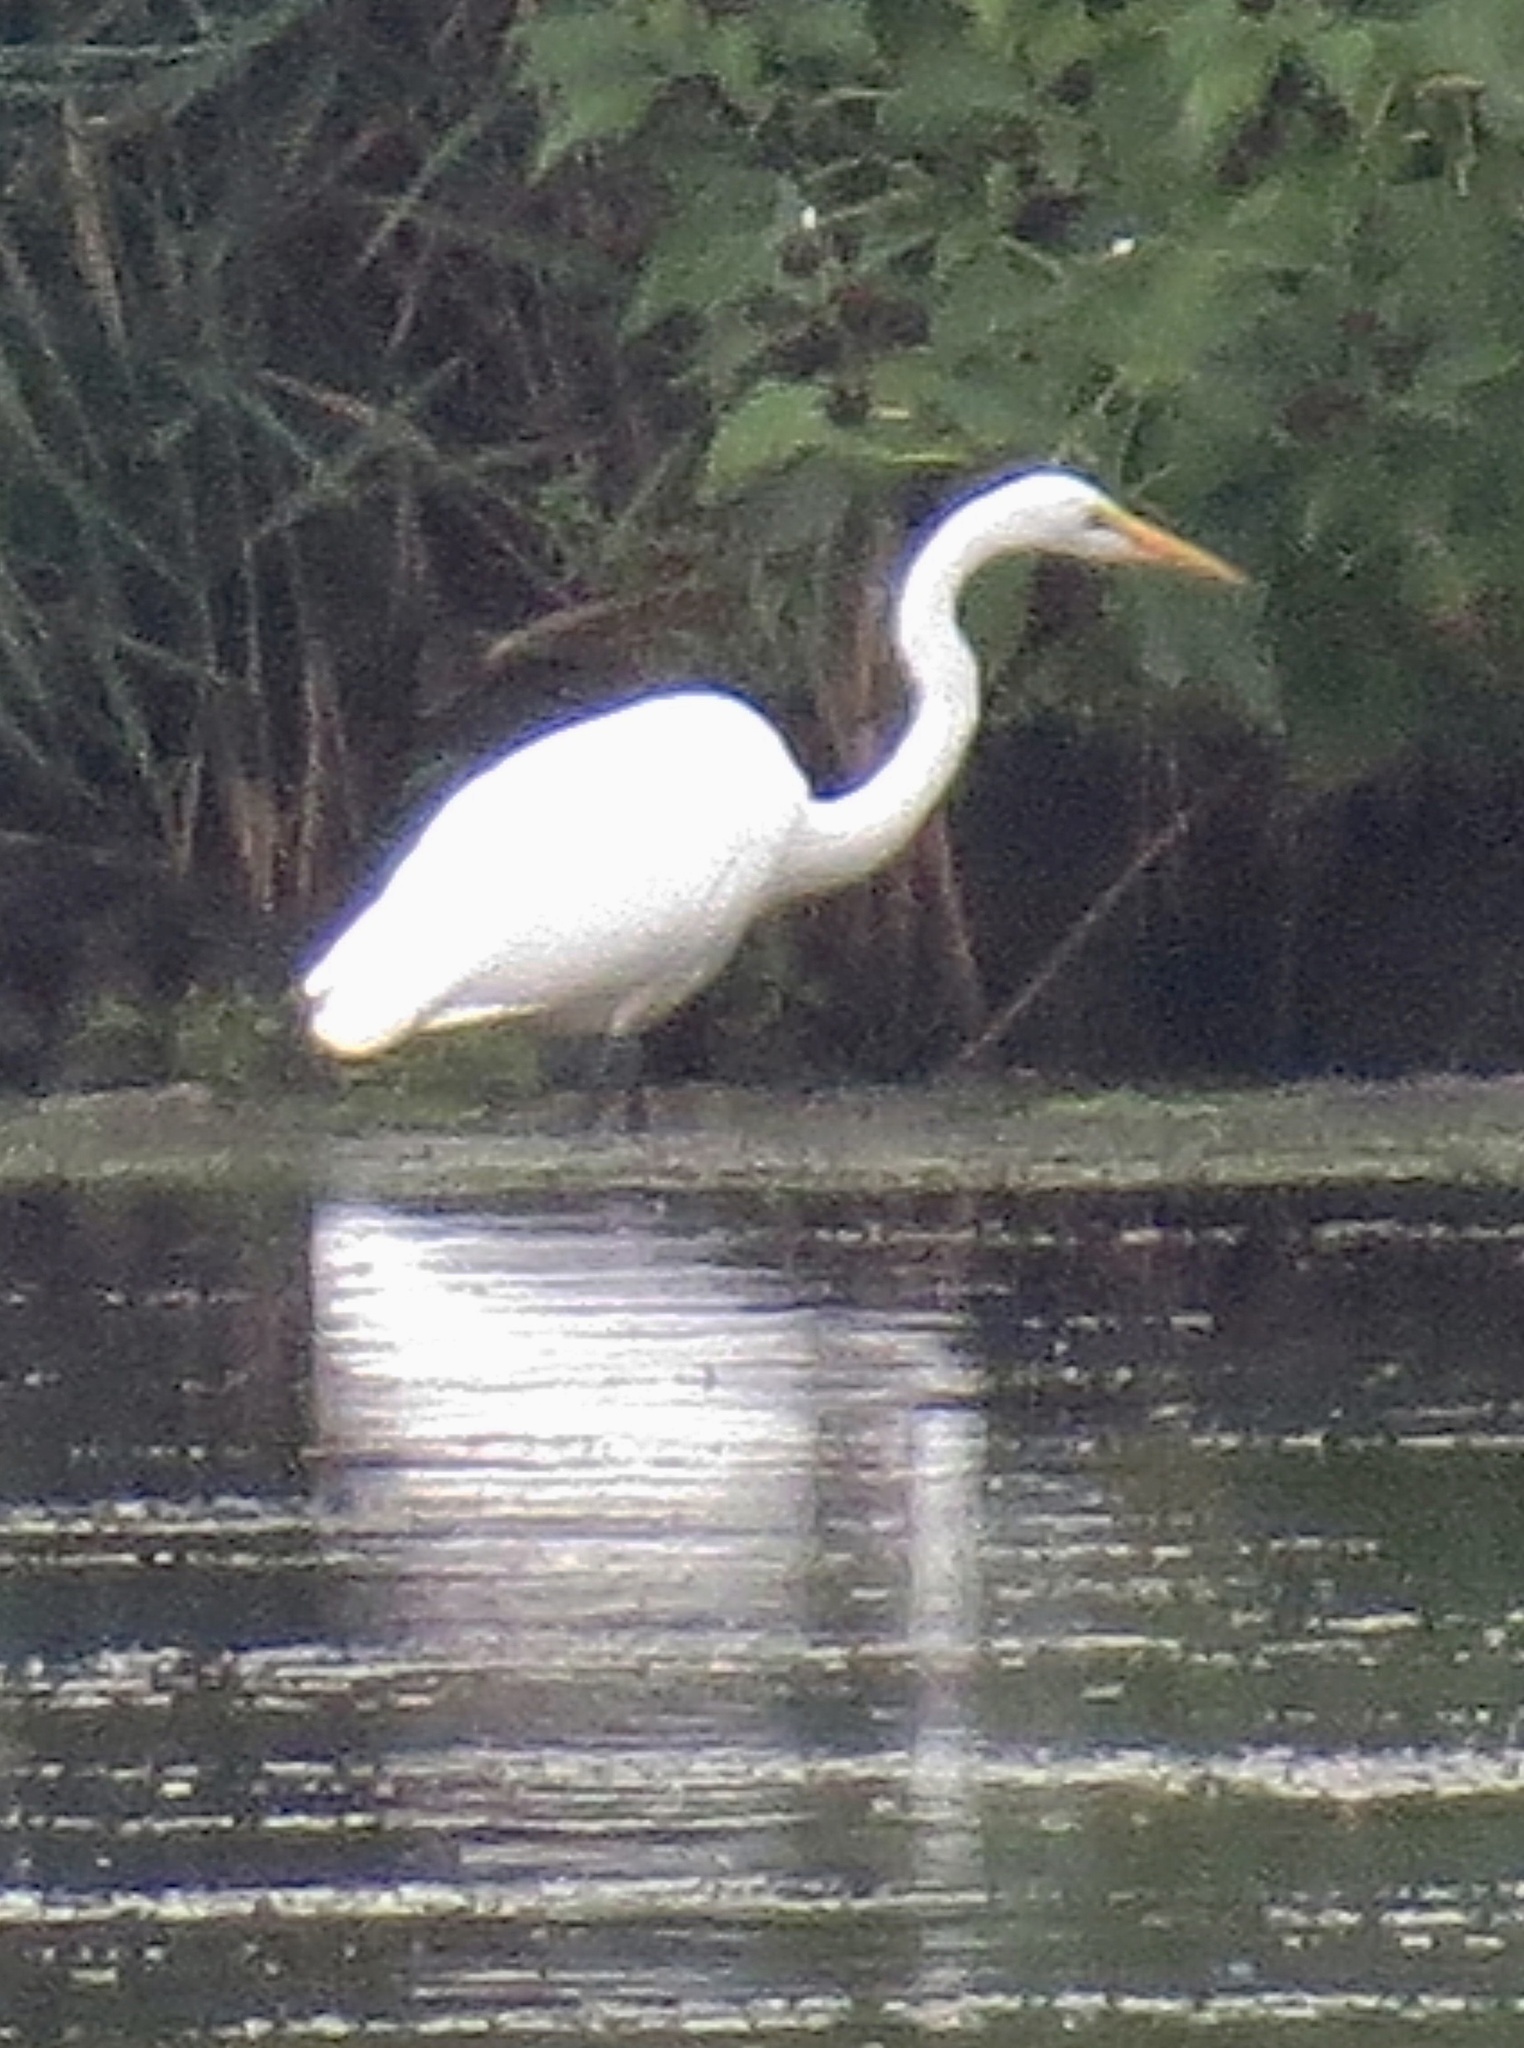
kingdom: Animalia
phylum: Chordata
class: Aves
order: Pelecaniformes
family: Ardeidae
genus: Ardea
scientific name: Ardea alba
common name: Great egret
